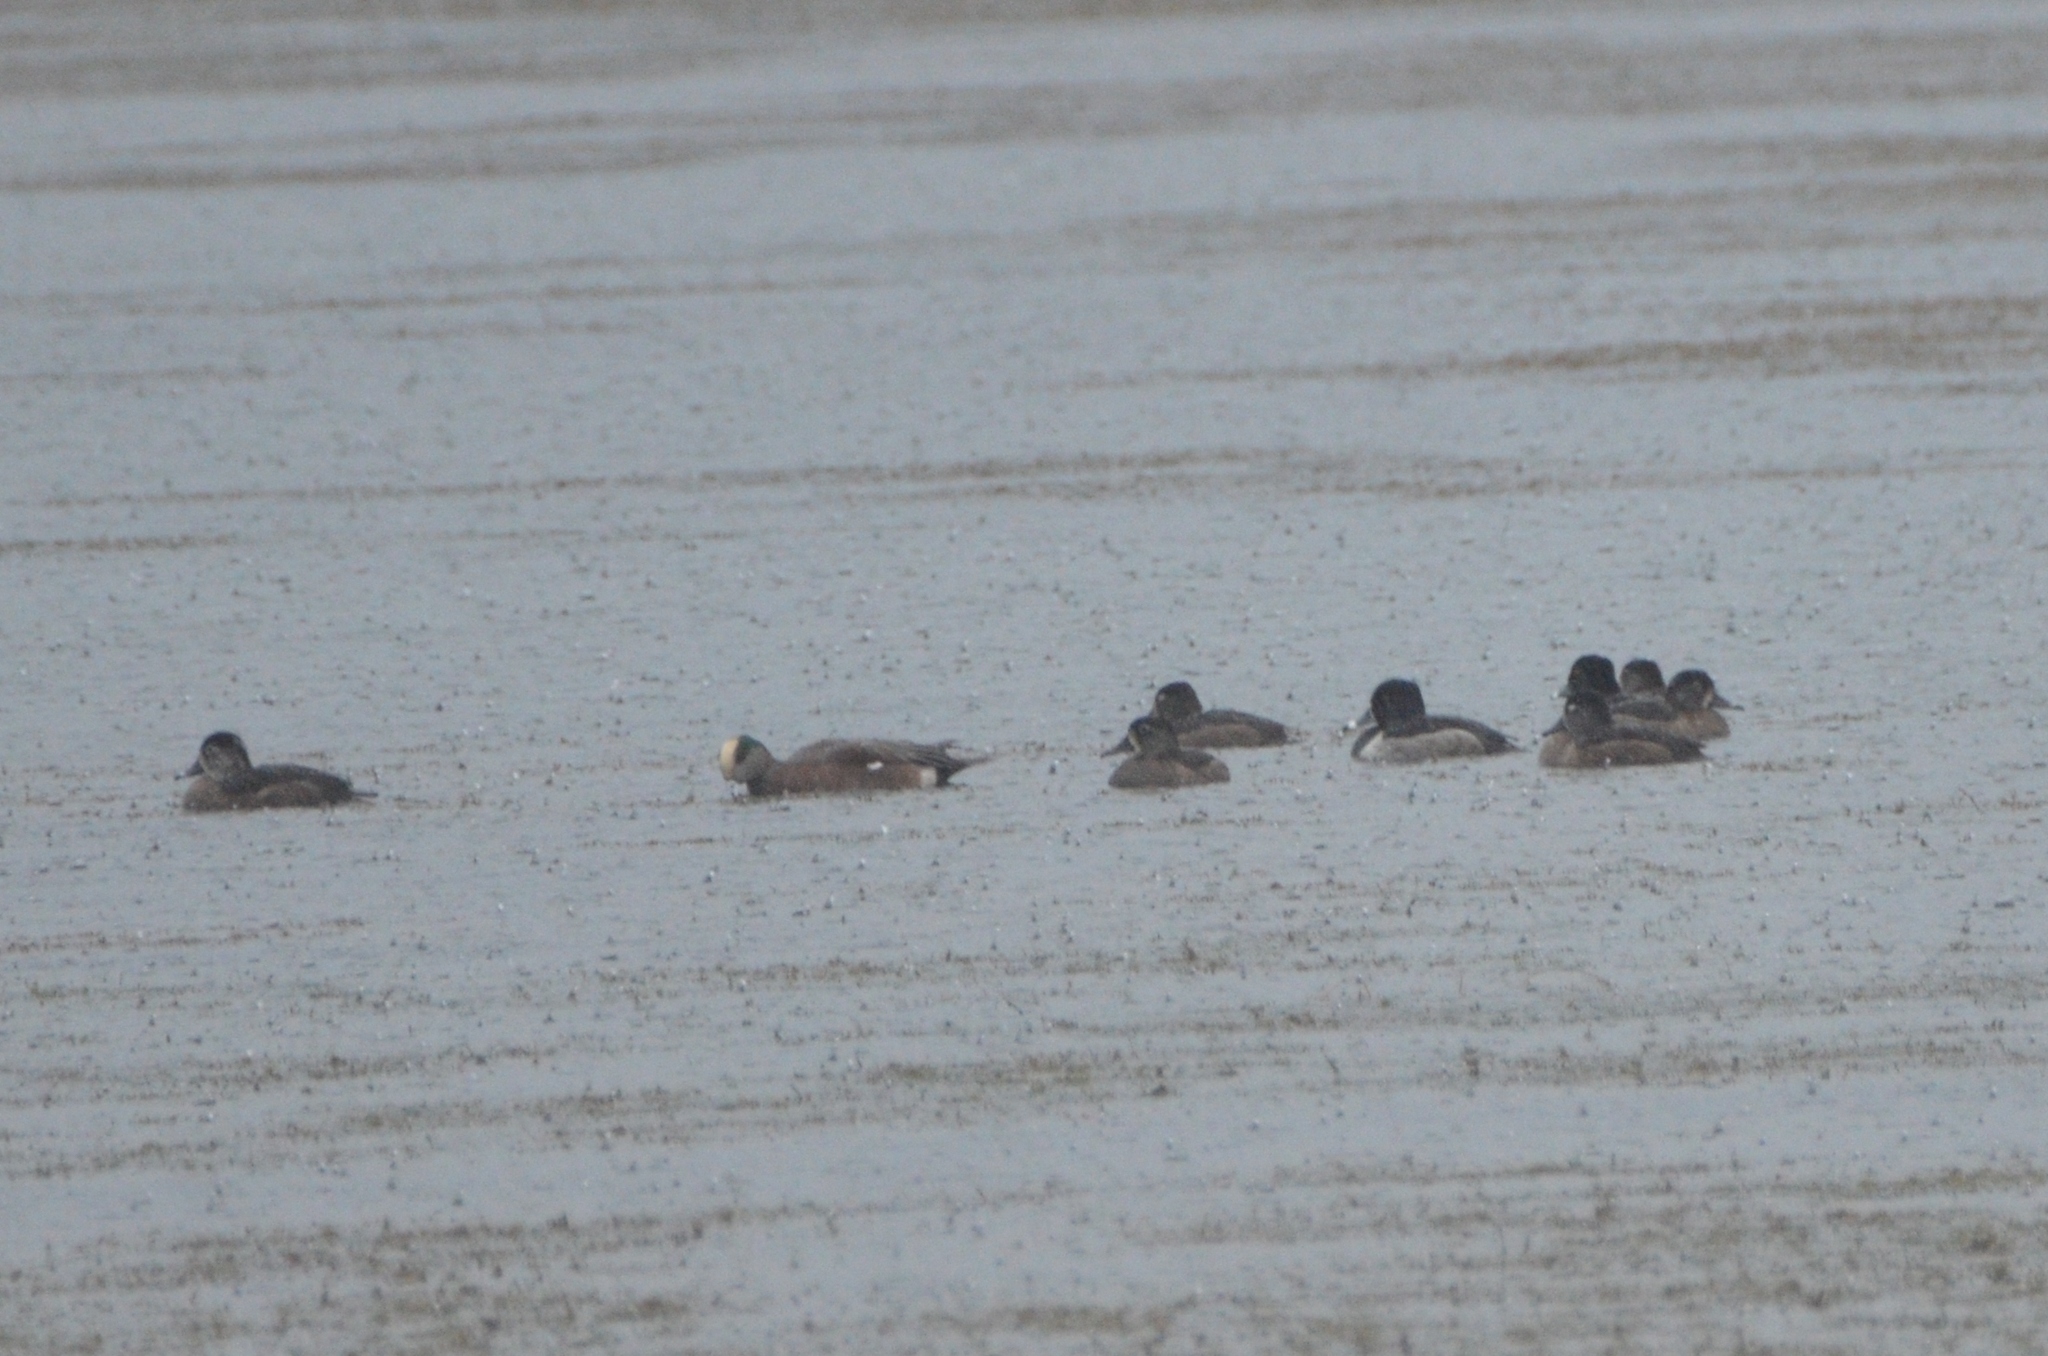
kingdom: Animalia
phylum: Chordata
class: Aves
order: Anseriformes
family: Anatidae
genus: Mareca
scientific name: Mareca americana
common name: American wigeon
